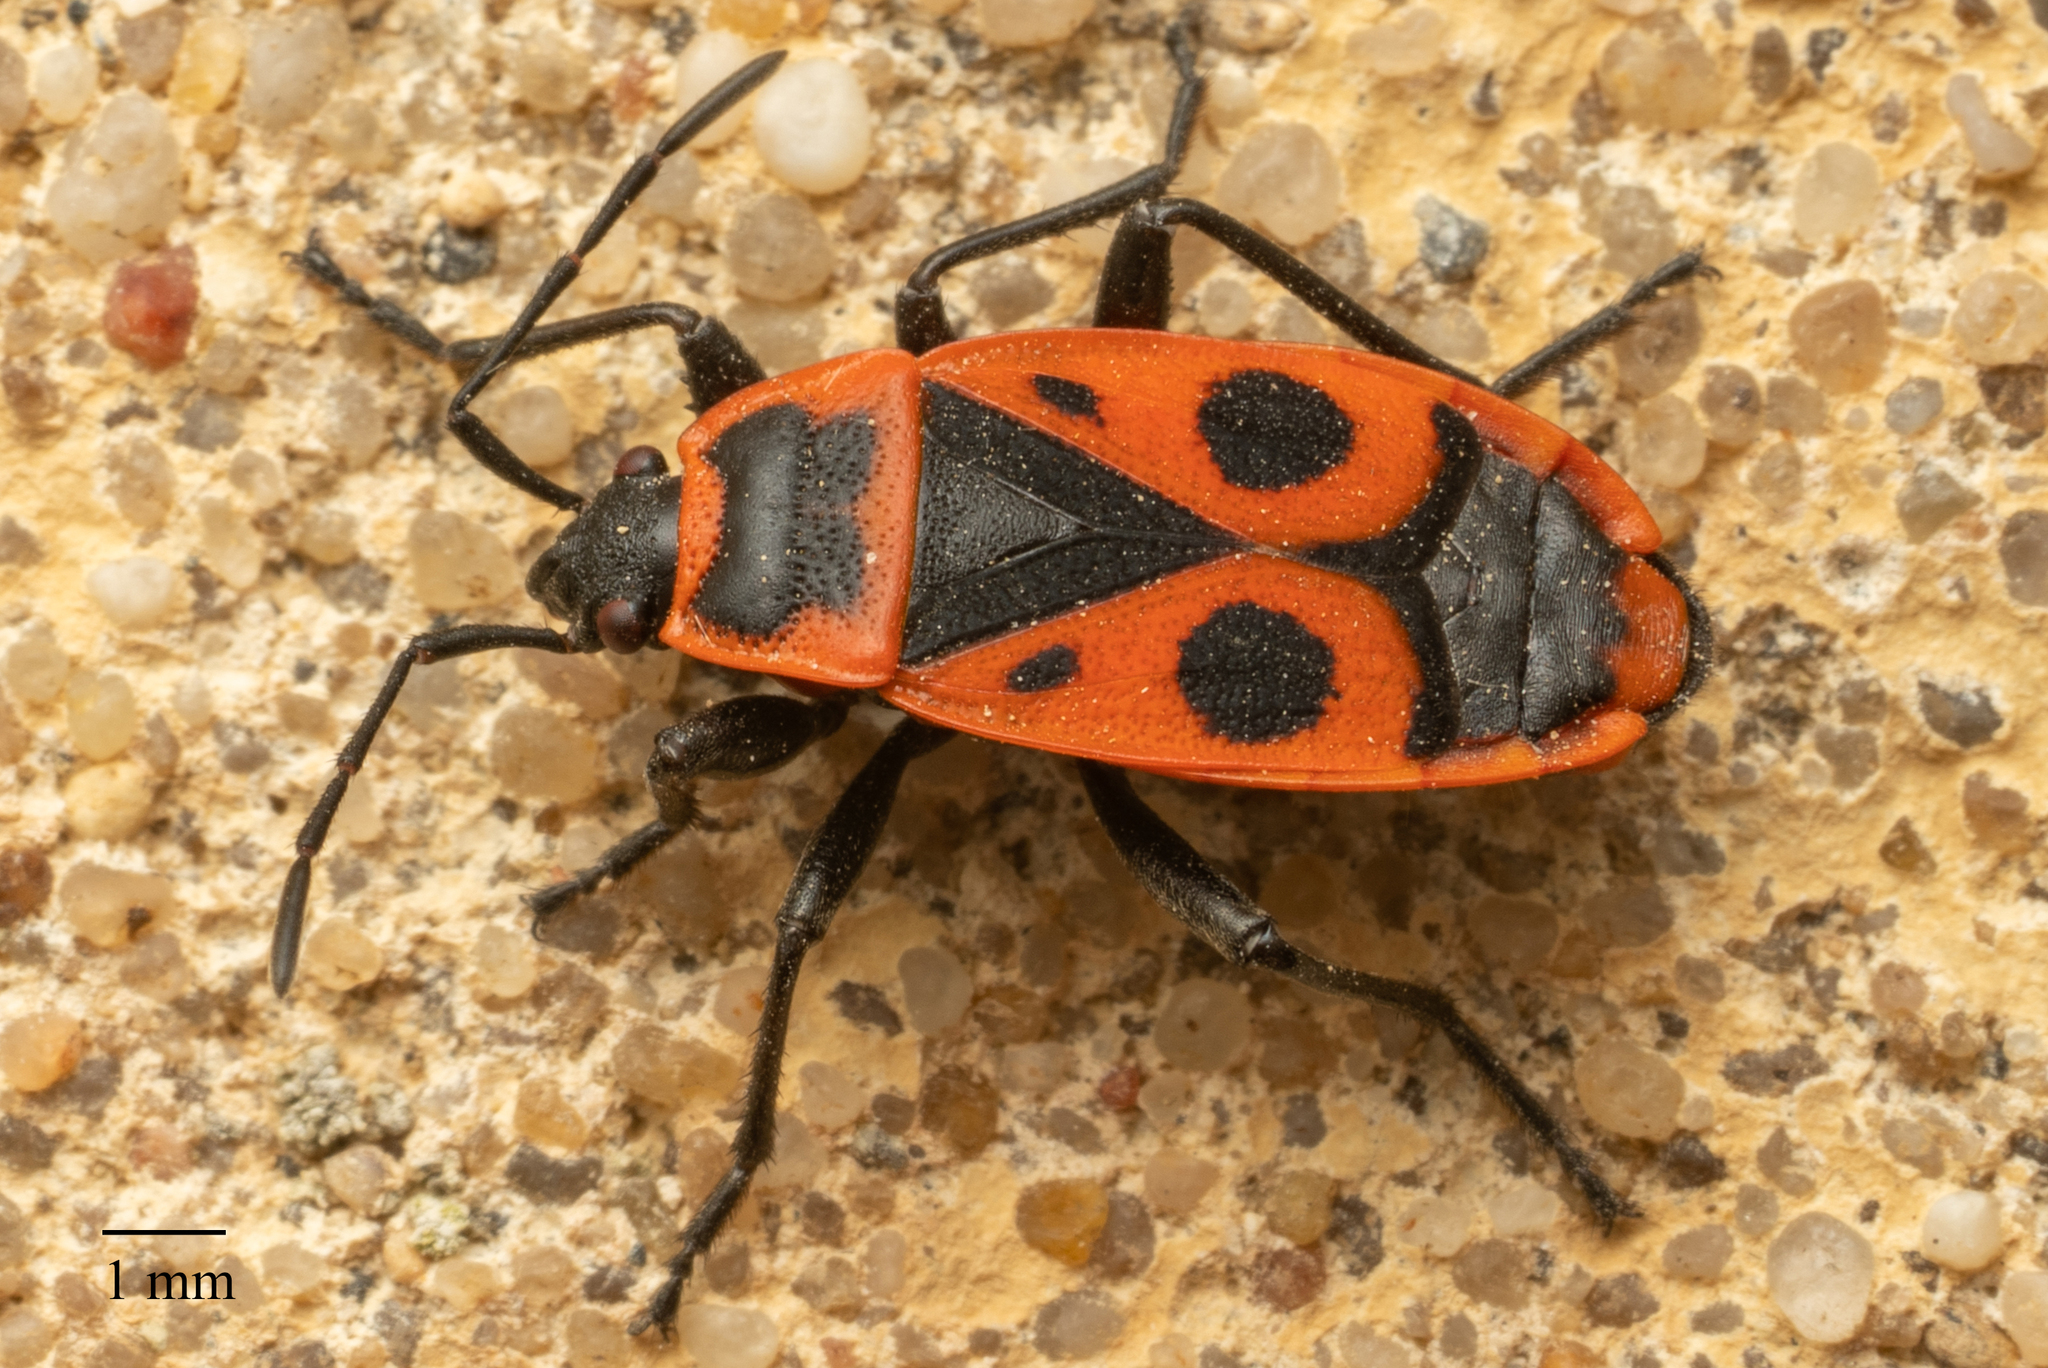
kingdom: Animalia
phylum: Arthropoda
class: Insecta
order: Hemiptera
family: Pyrrhocoridae
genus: Pyrrhocoris
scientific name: Pyrrhocoris apterus
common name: Firebug
